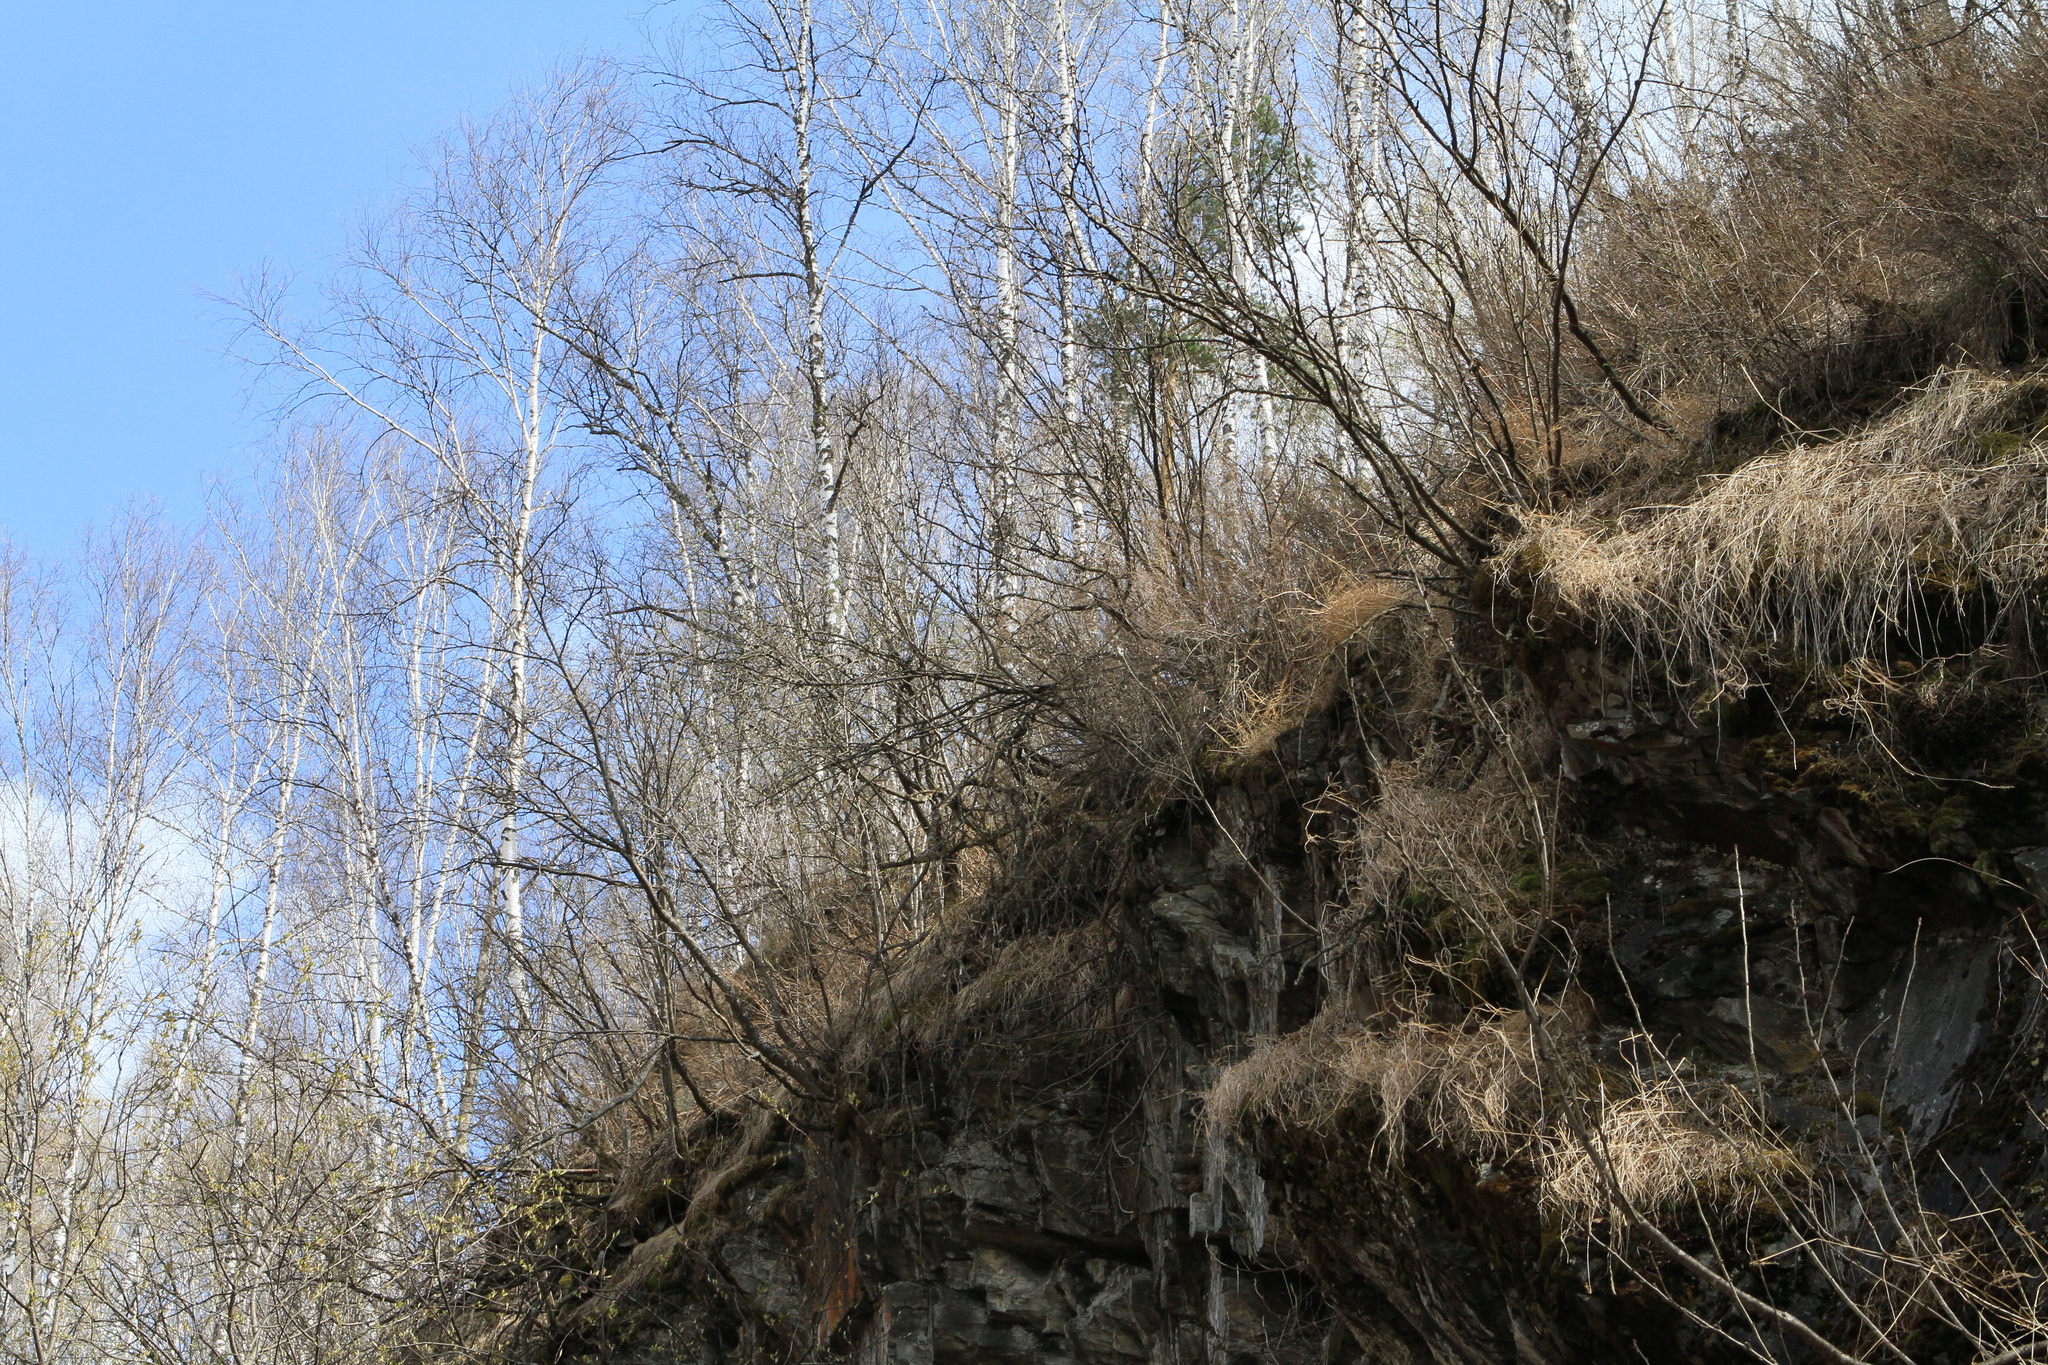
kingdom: Plantae
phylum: Tracheophyta
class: Magnoliopsida
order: Fabales
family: Fabaceae
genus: Caragana
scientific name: Caragana arborescens
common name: Siberian peashrub
